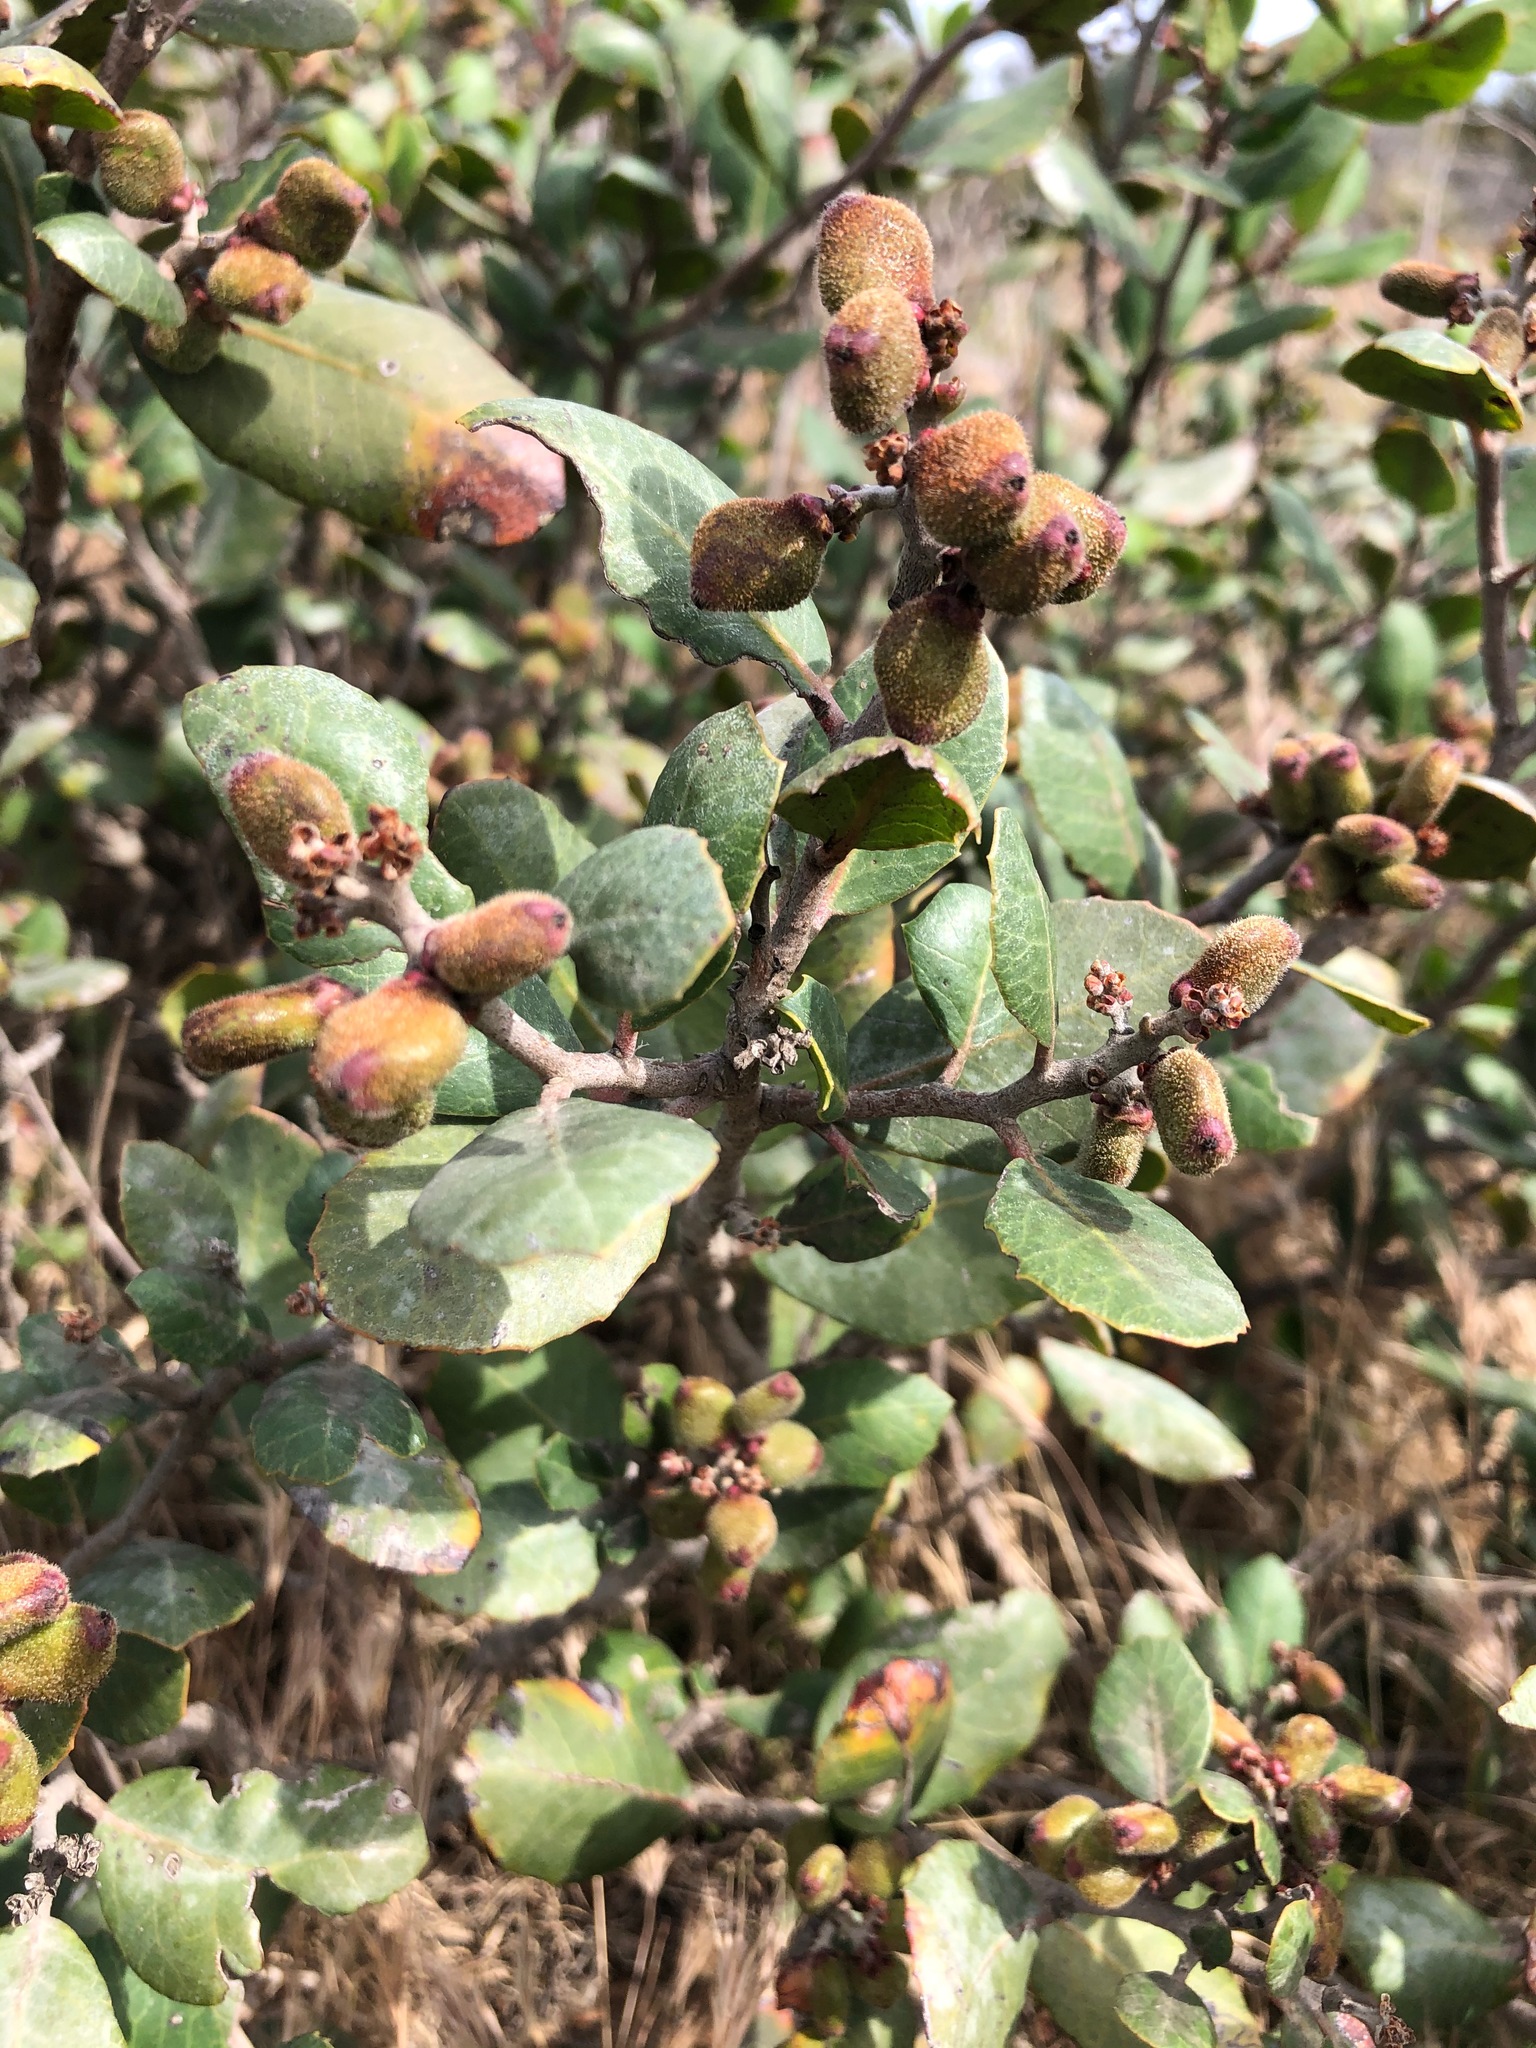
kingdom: Plantae
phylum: Tracheophyta
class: Magnoliopsida
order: Sapindales
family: Anacardiaceae
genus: Rhus
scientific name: Rhus integrifolia
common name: Lemonade sumac
